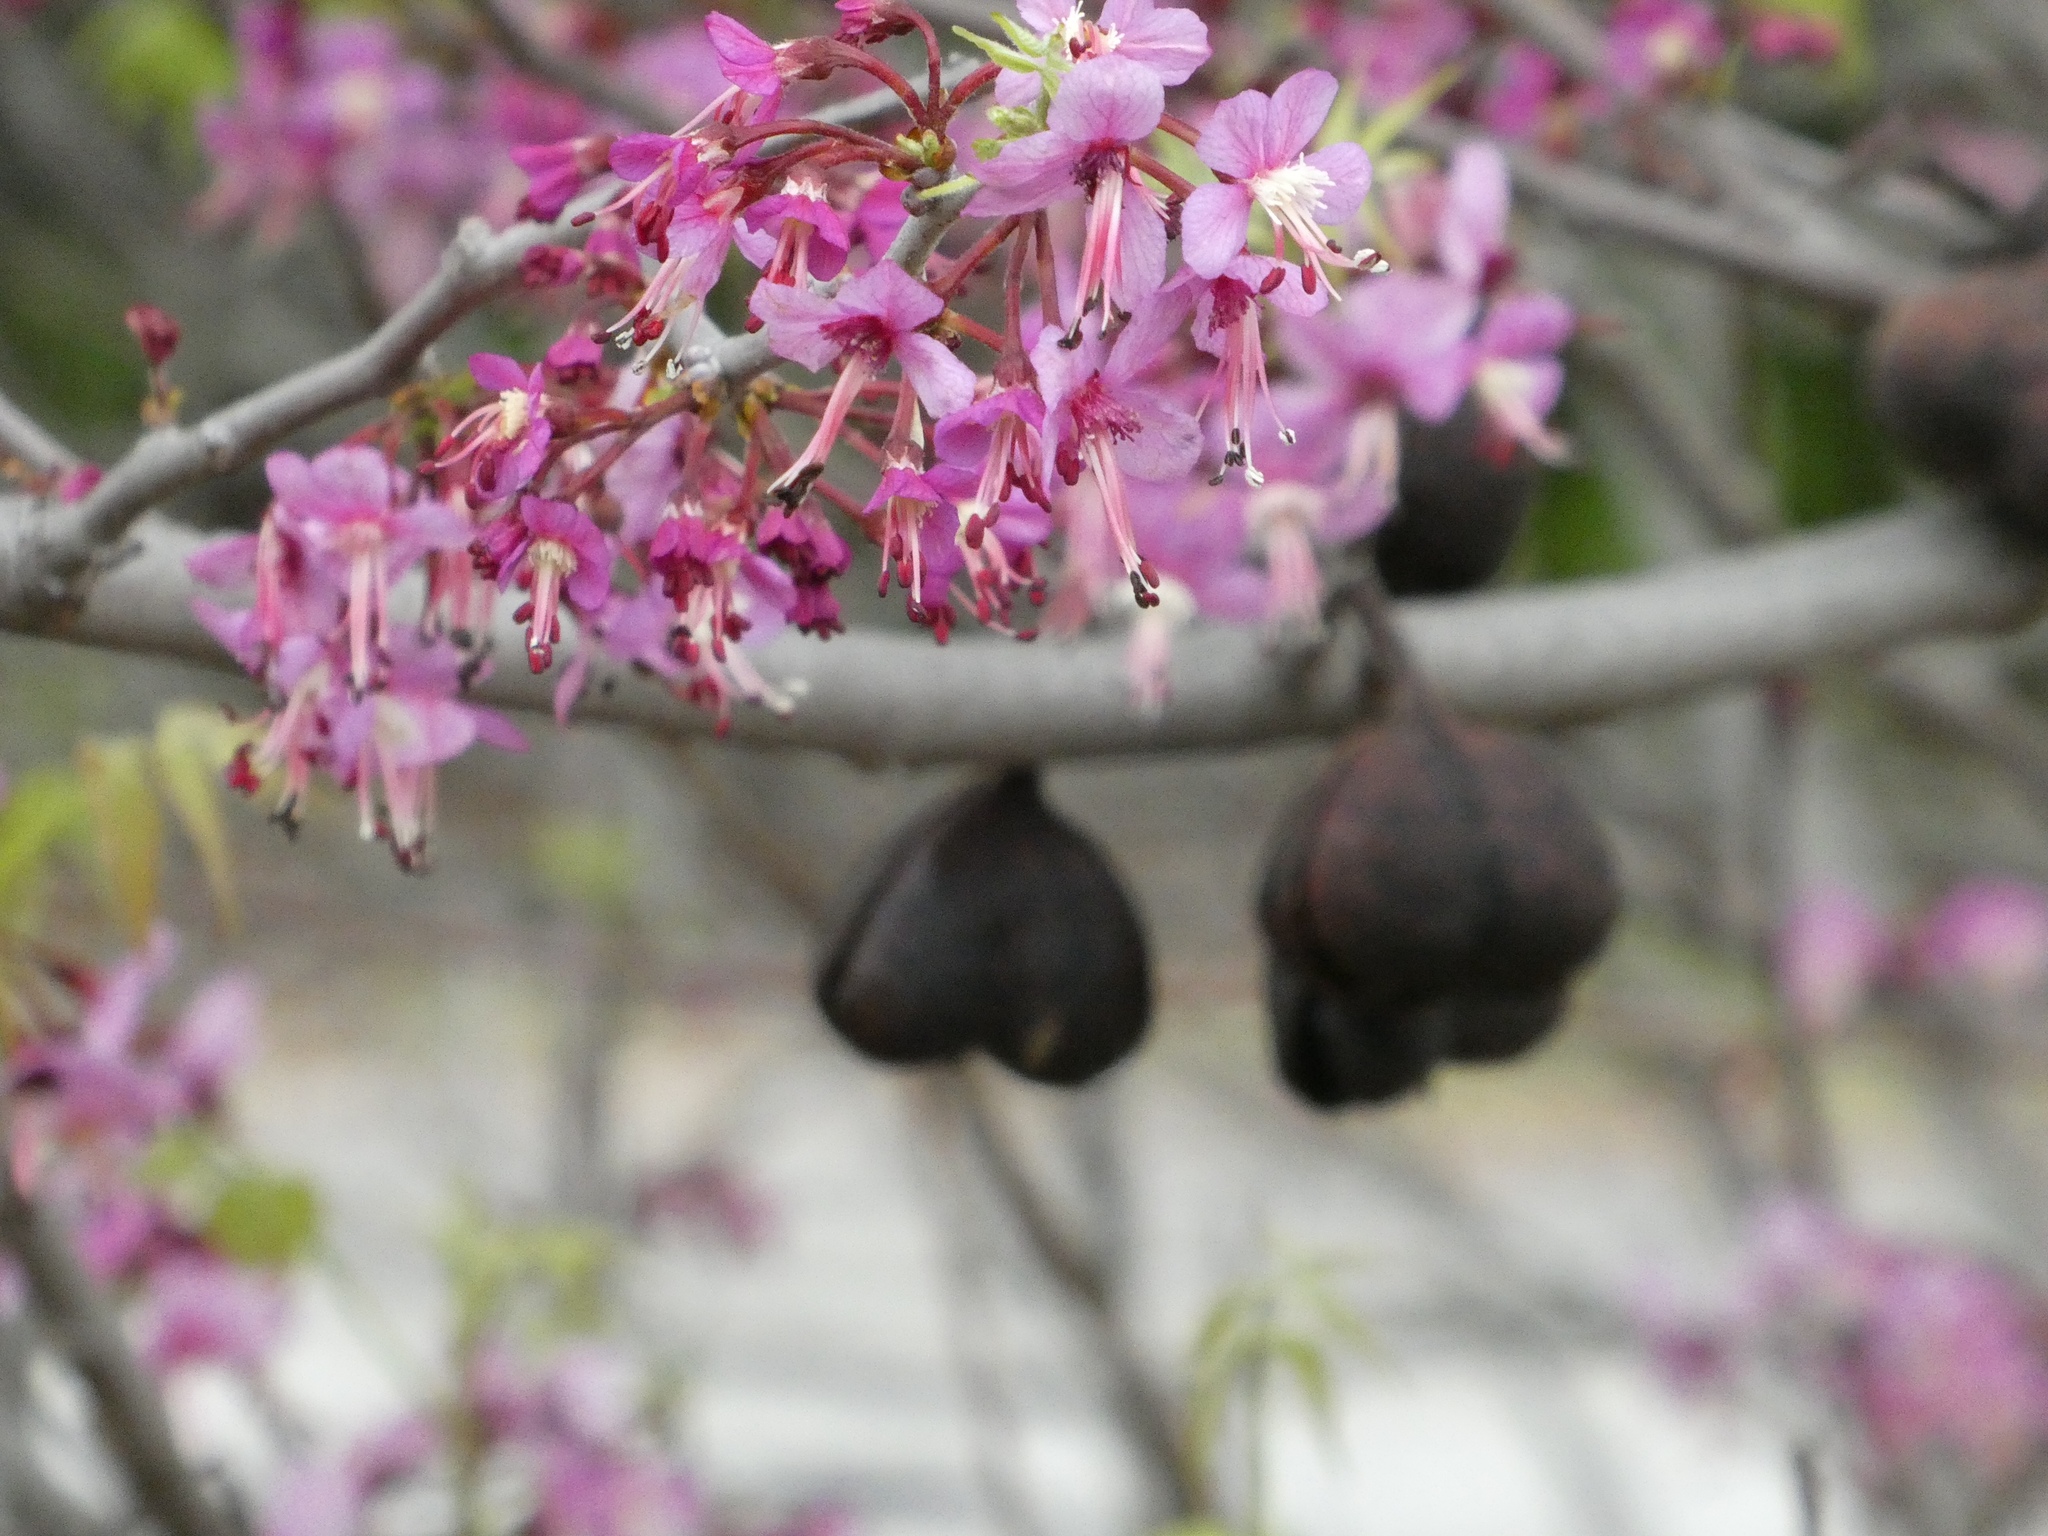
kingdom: Plantae
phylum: Tracheophyta
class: Magnoliopsida
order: Sapindales
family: Sapindaceae
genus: Ungnadia
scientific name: Ungnadia speciosa
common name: Texas-buckeye
